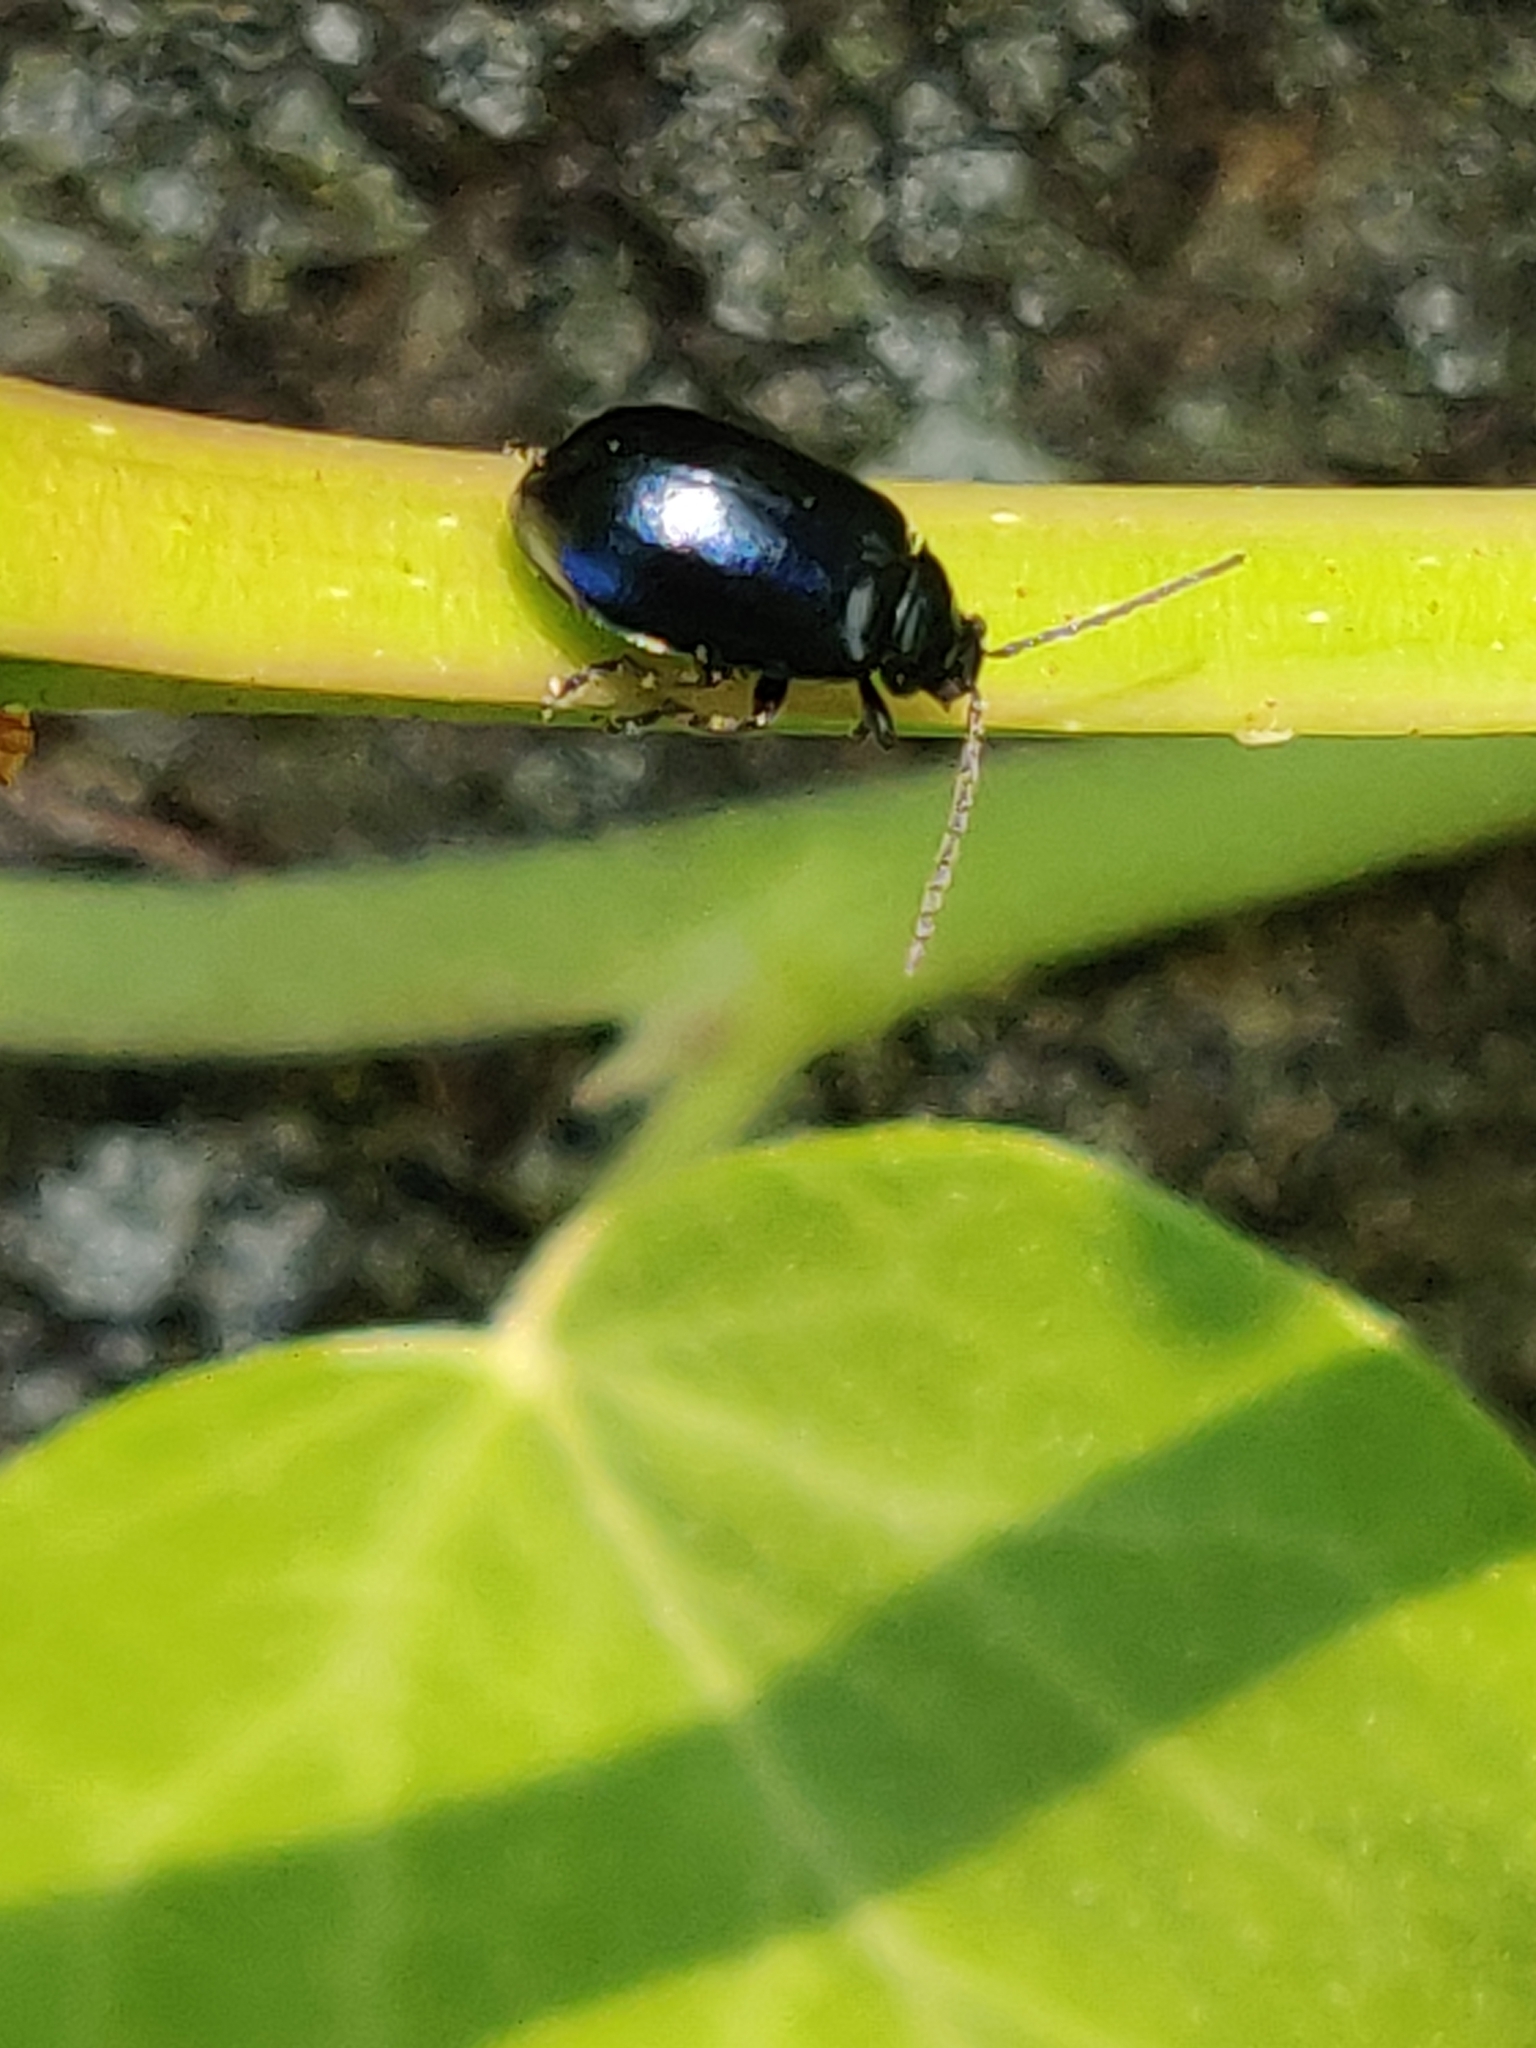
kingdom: Animalia
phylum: Arthropoda
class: Insecta
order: Coleoptera
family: Chrysomelidae
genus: Agelastica
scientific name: Agelastica alni
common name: Alder leaf beetle
